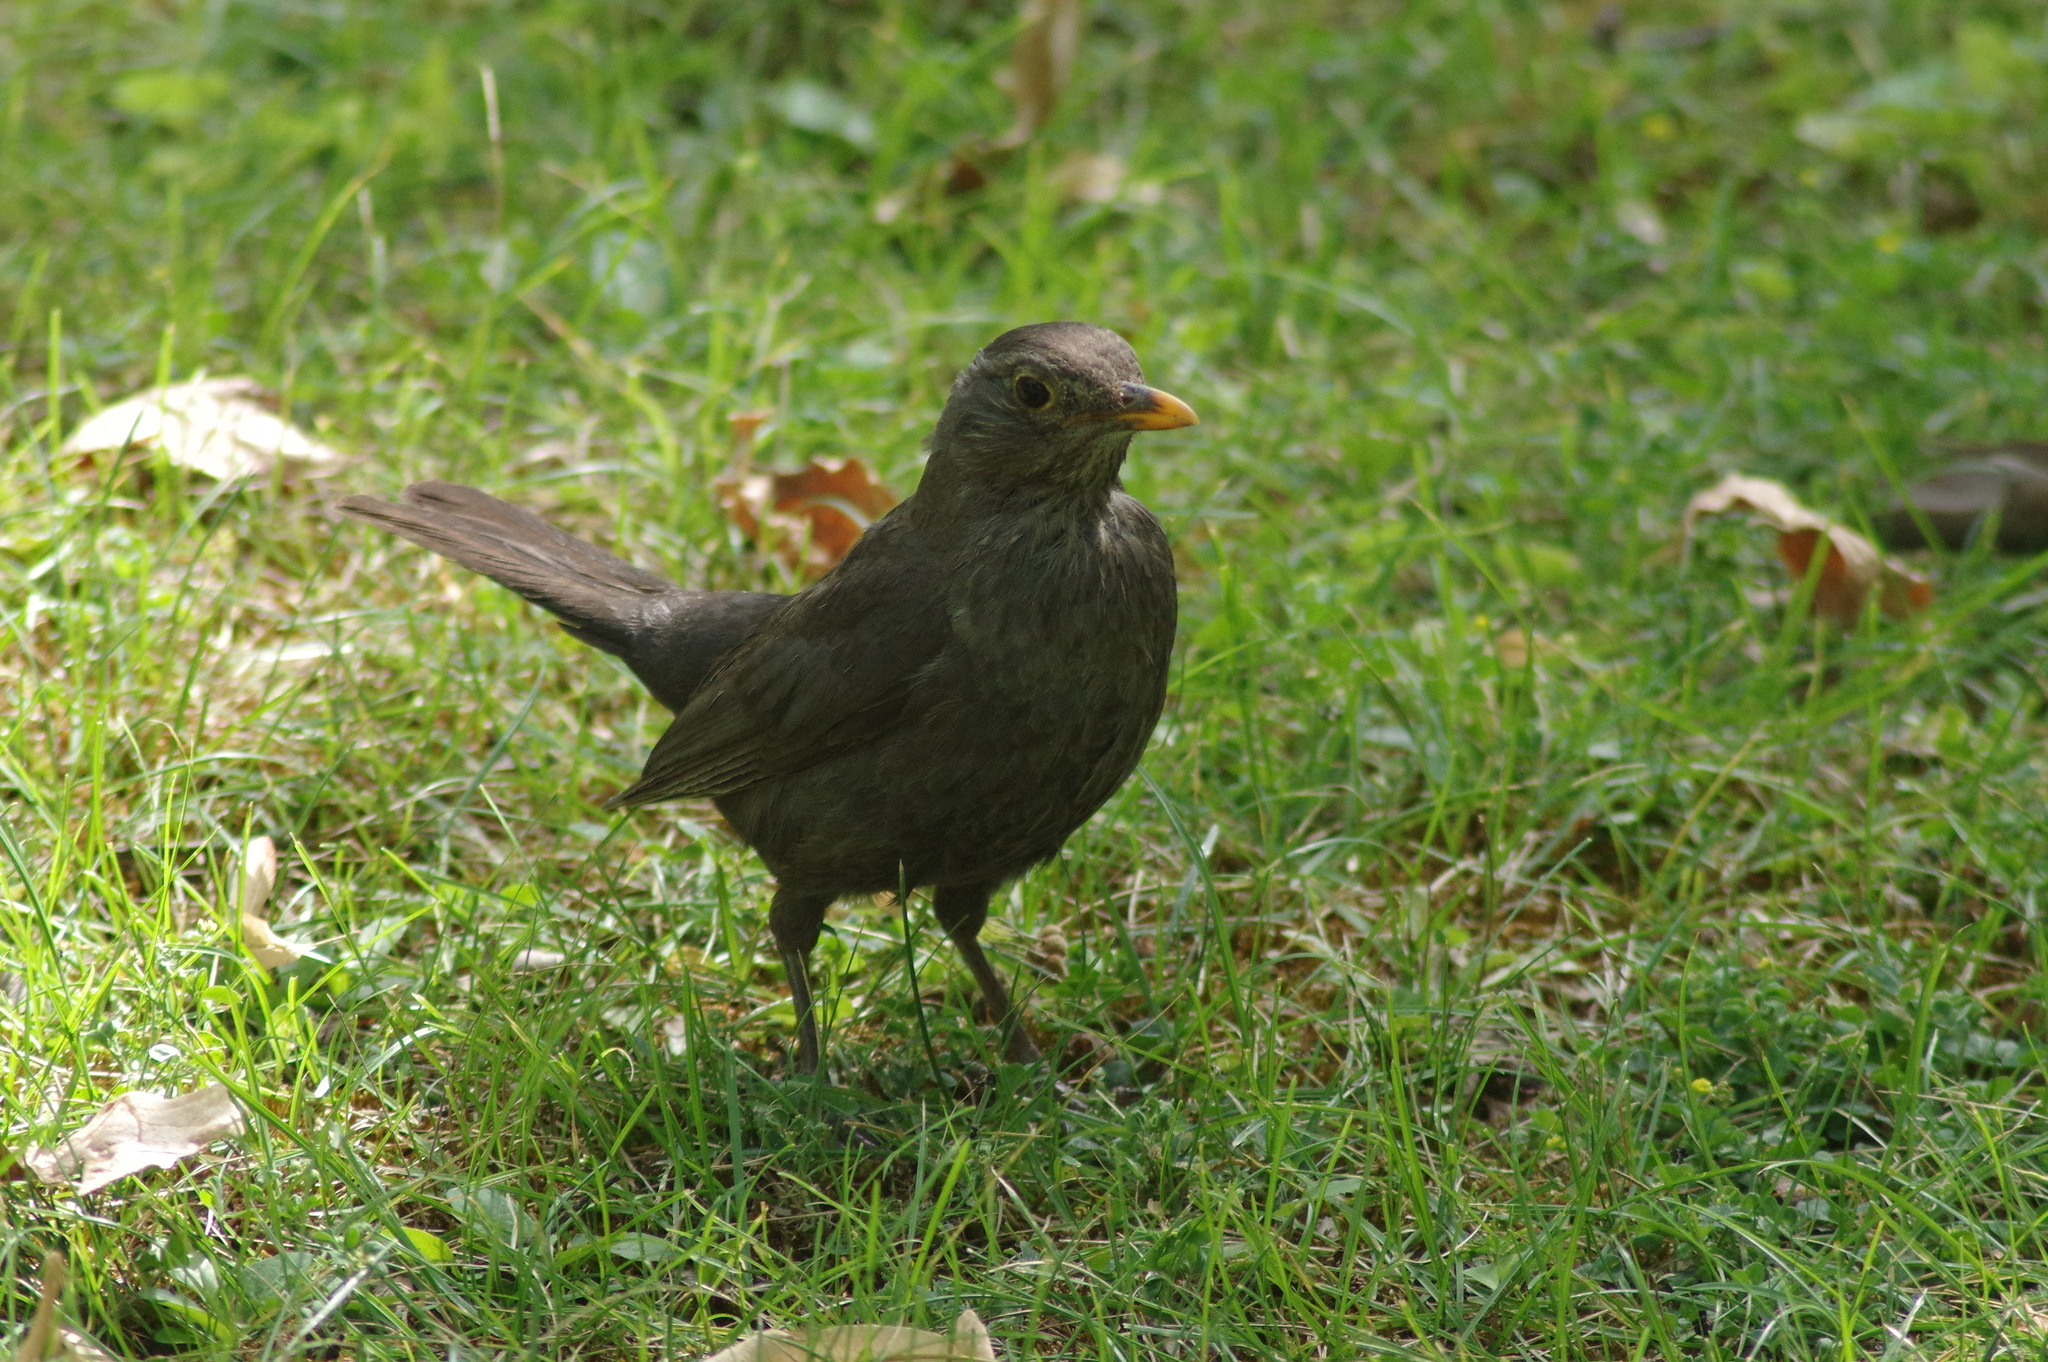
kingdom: Animalia
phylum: Chordata
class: Aves
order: Passeriformes
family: Turdidae
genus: Turdus
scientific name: Turdus merula
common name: Common blackbird
